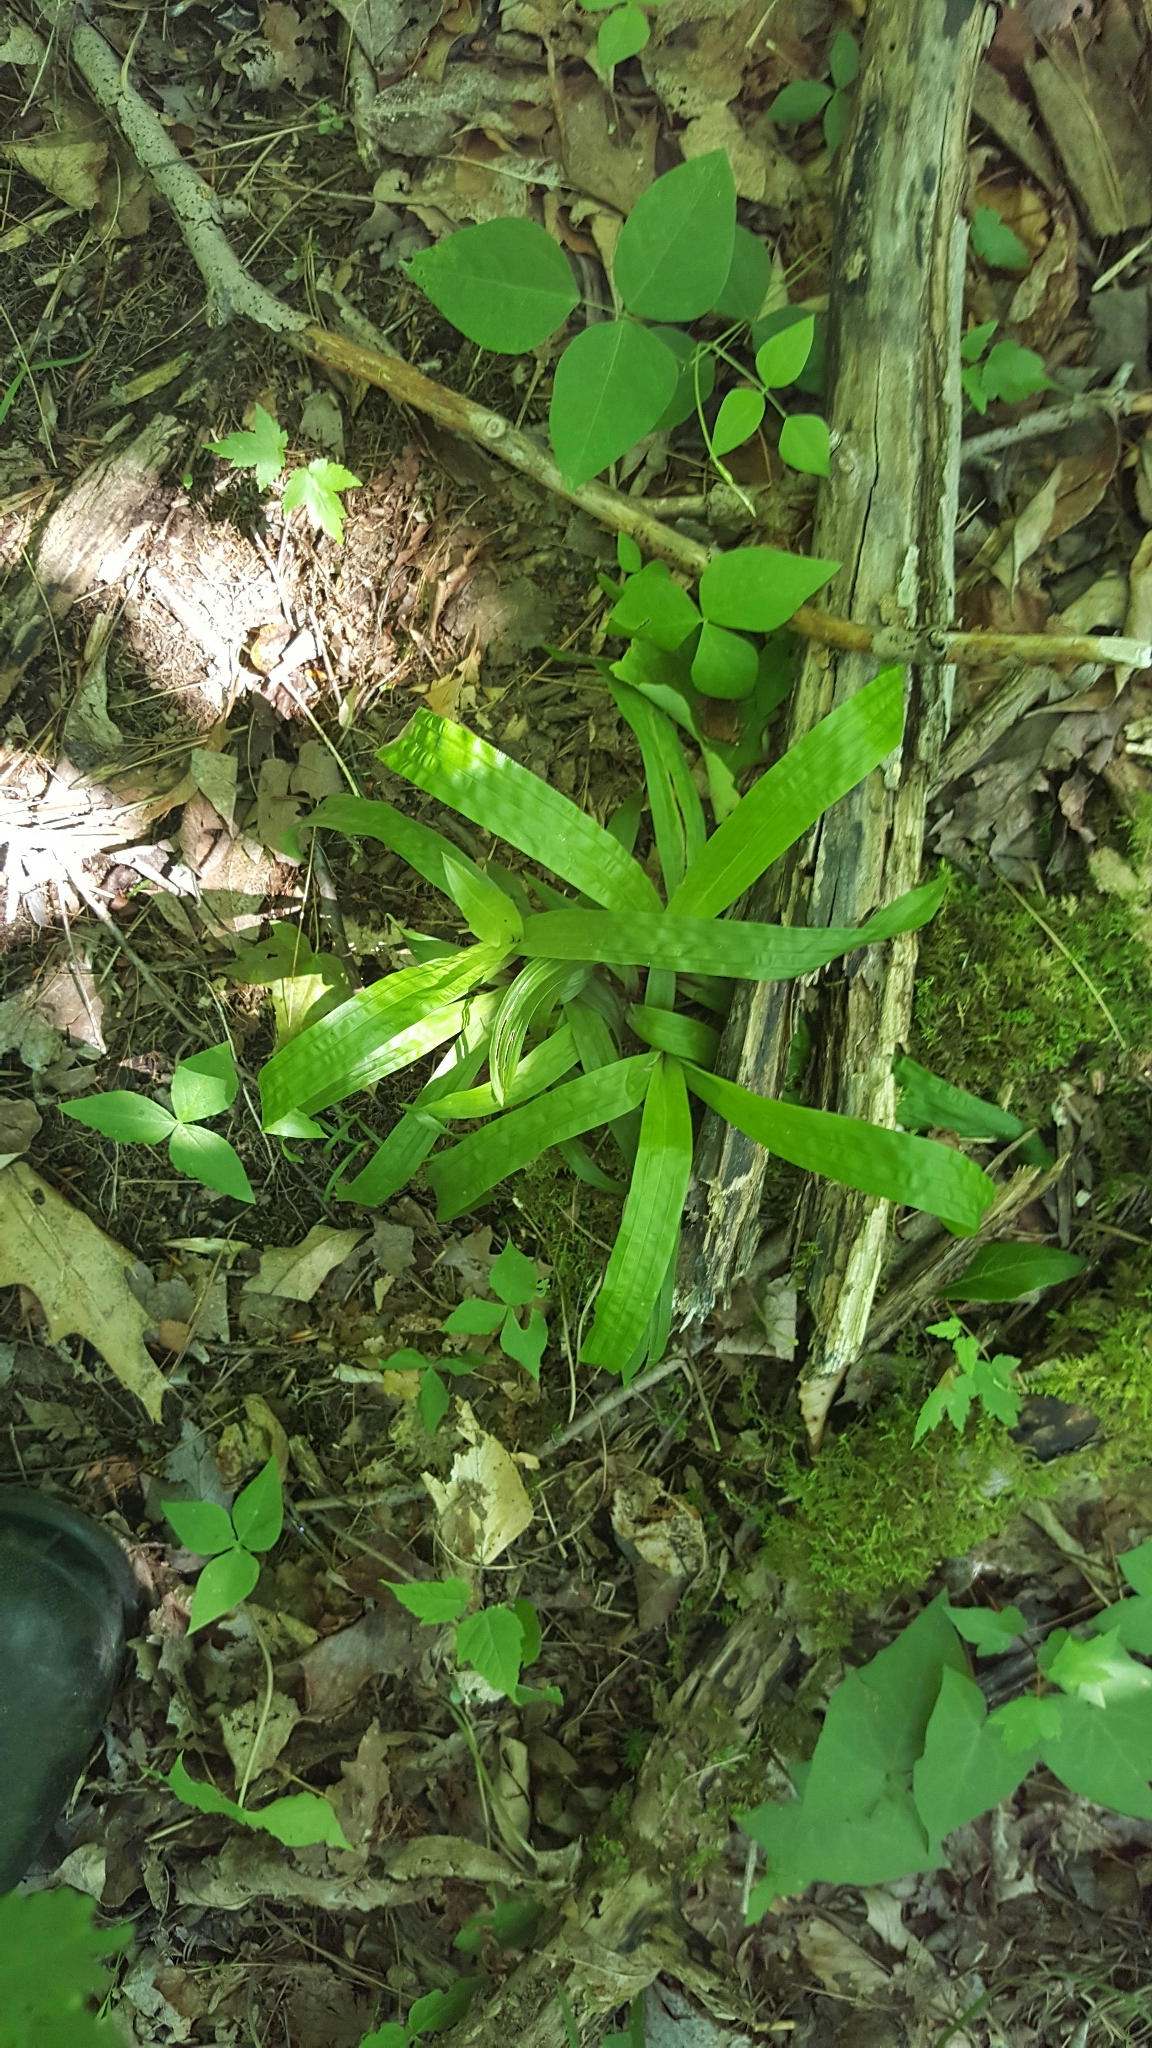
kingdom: Plantae
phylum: Tracheophyta
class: Magnoliopsida
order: Fabales
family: Fabaceae
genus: Amphicarpaea
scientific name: Amphicarpaea bracteata
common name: American hog peanut
